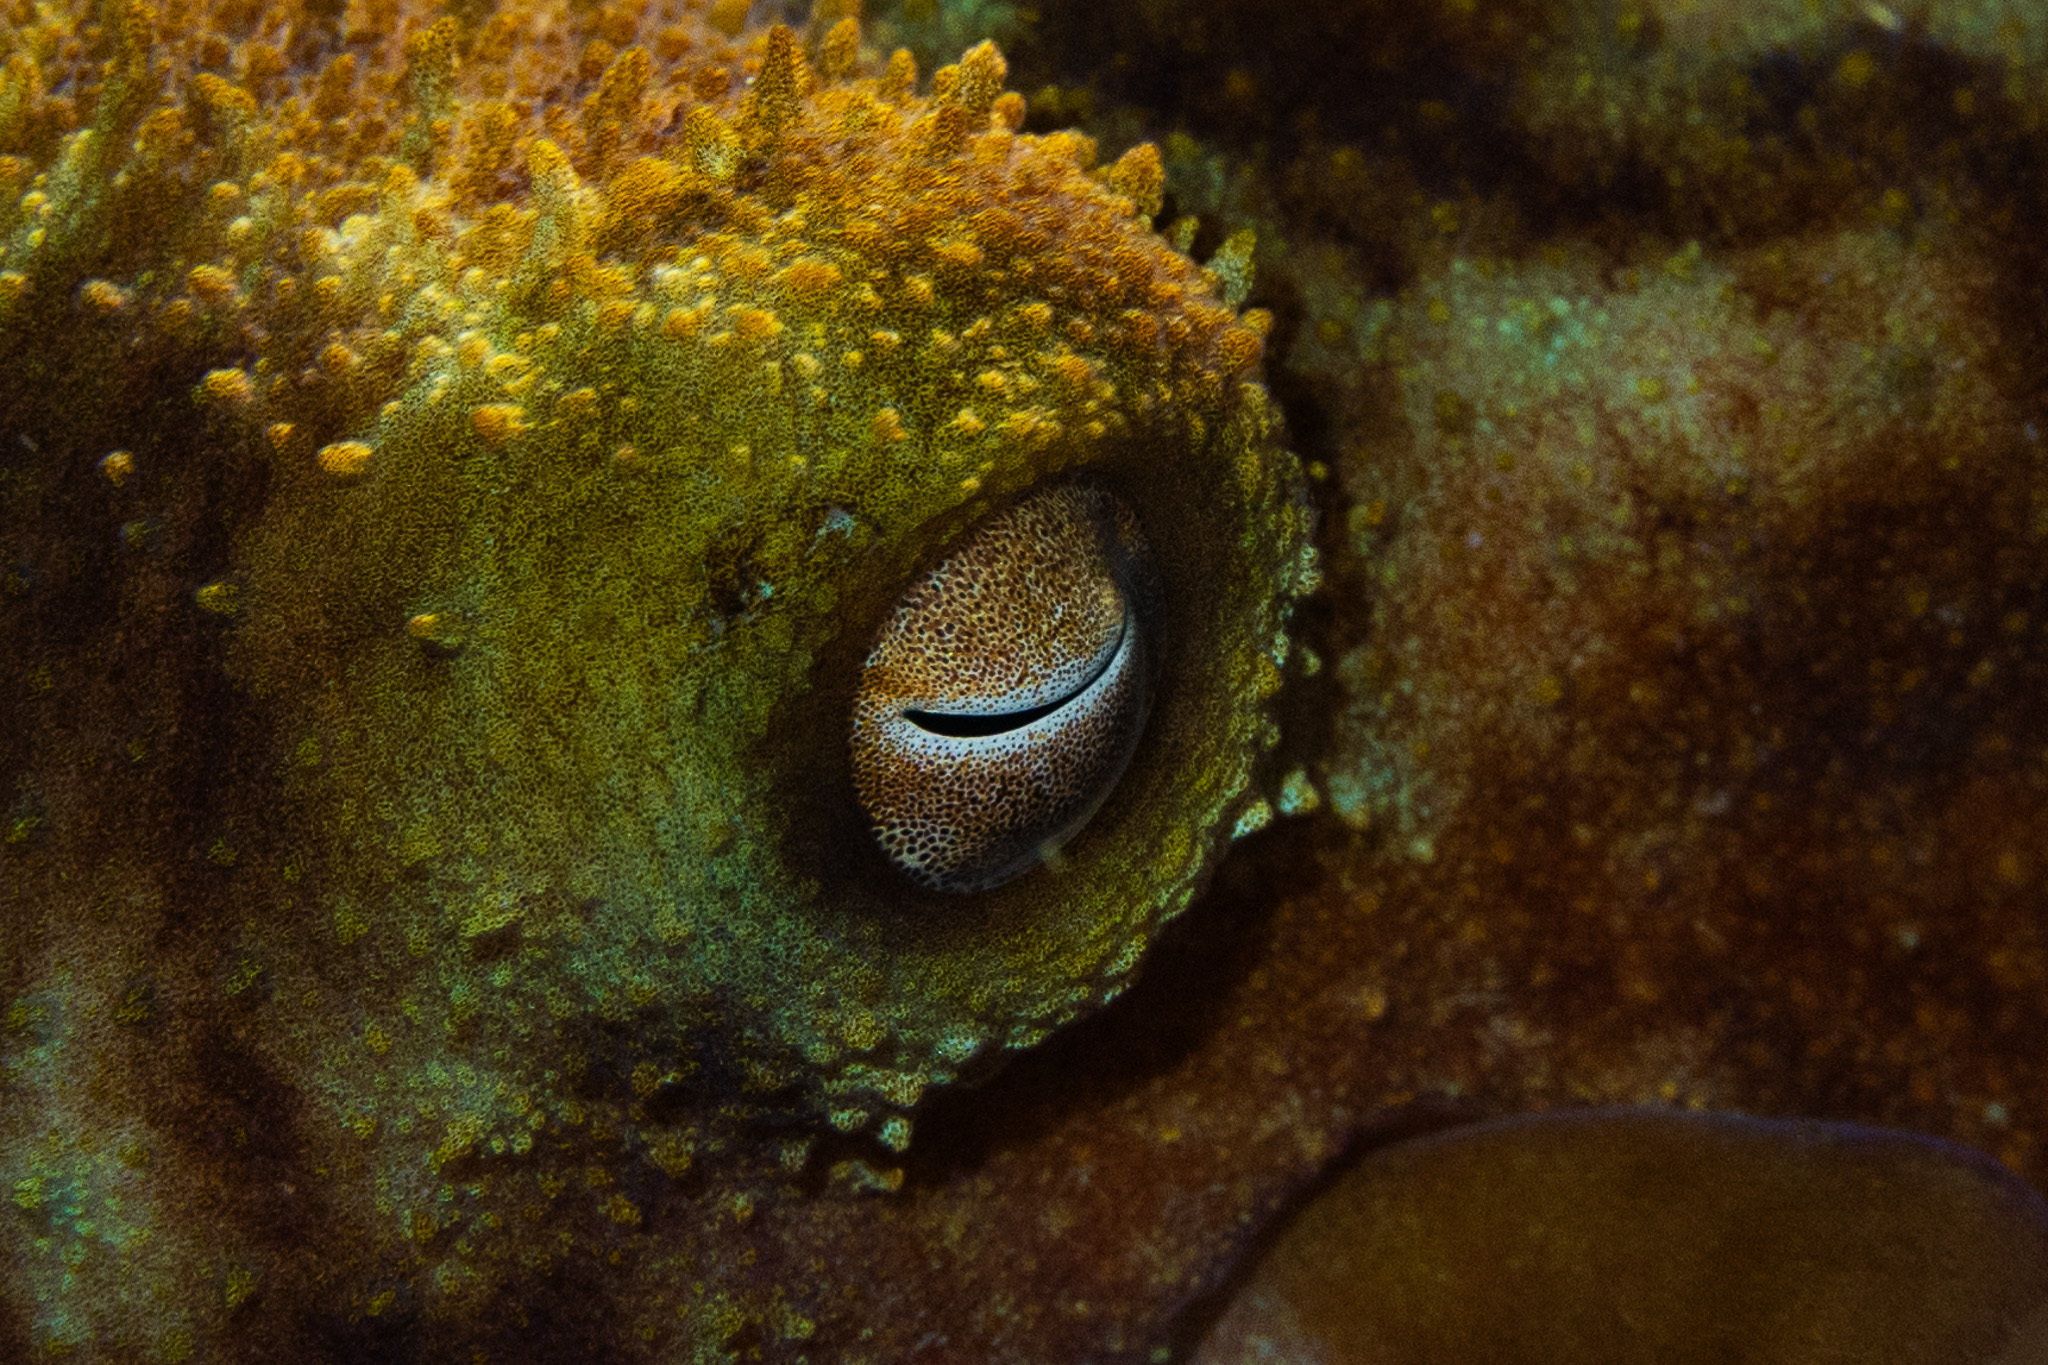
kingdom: Animalia
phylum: Mollusca
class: Cephalopoda
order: Octopoda
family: Octopodidae
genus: Octopus
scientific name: Octopus briareus
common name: Caribbean reef octopus
